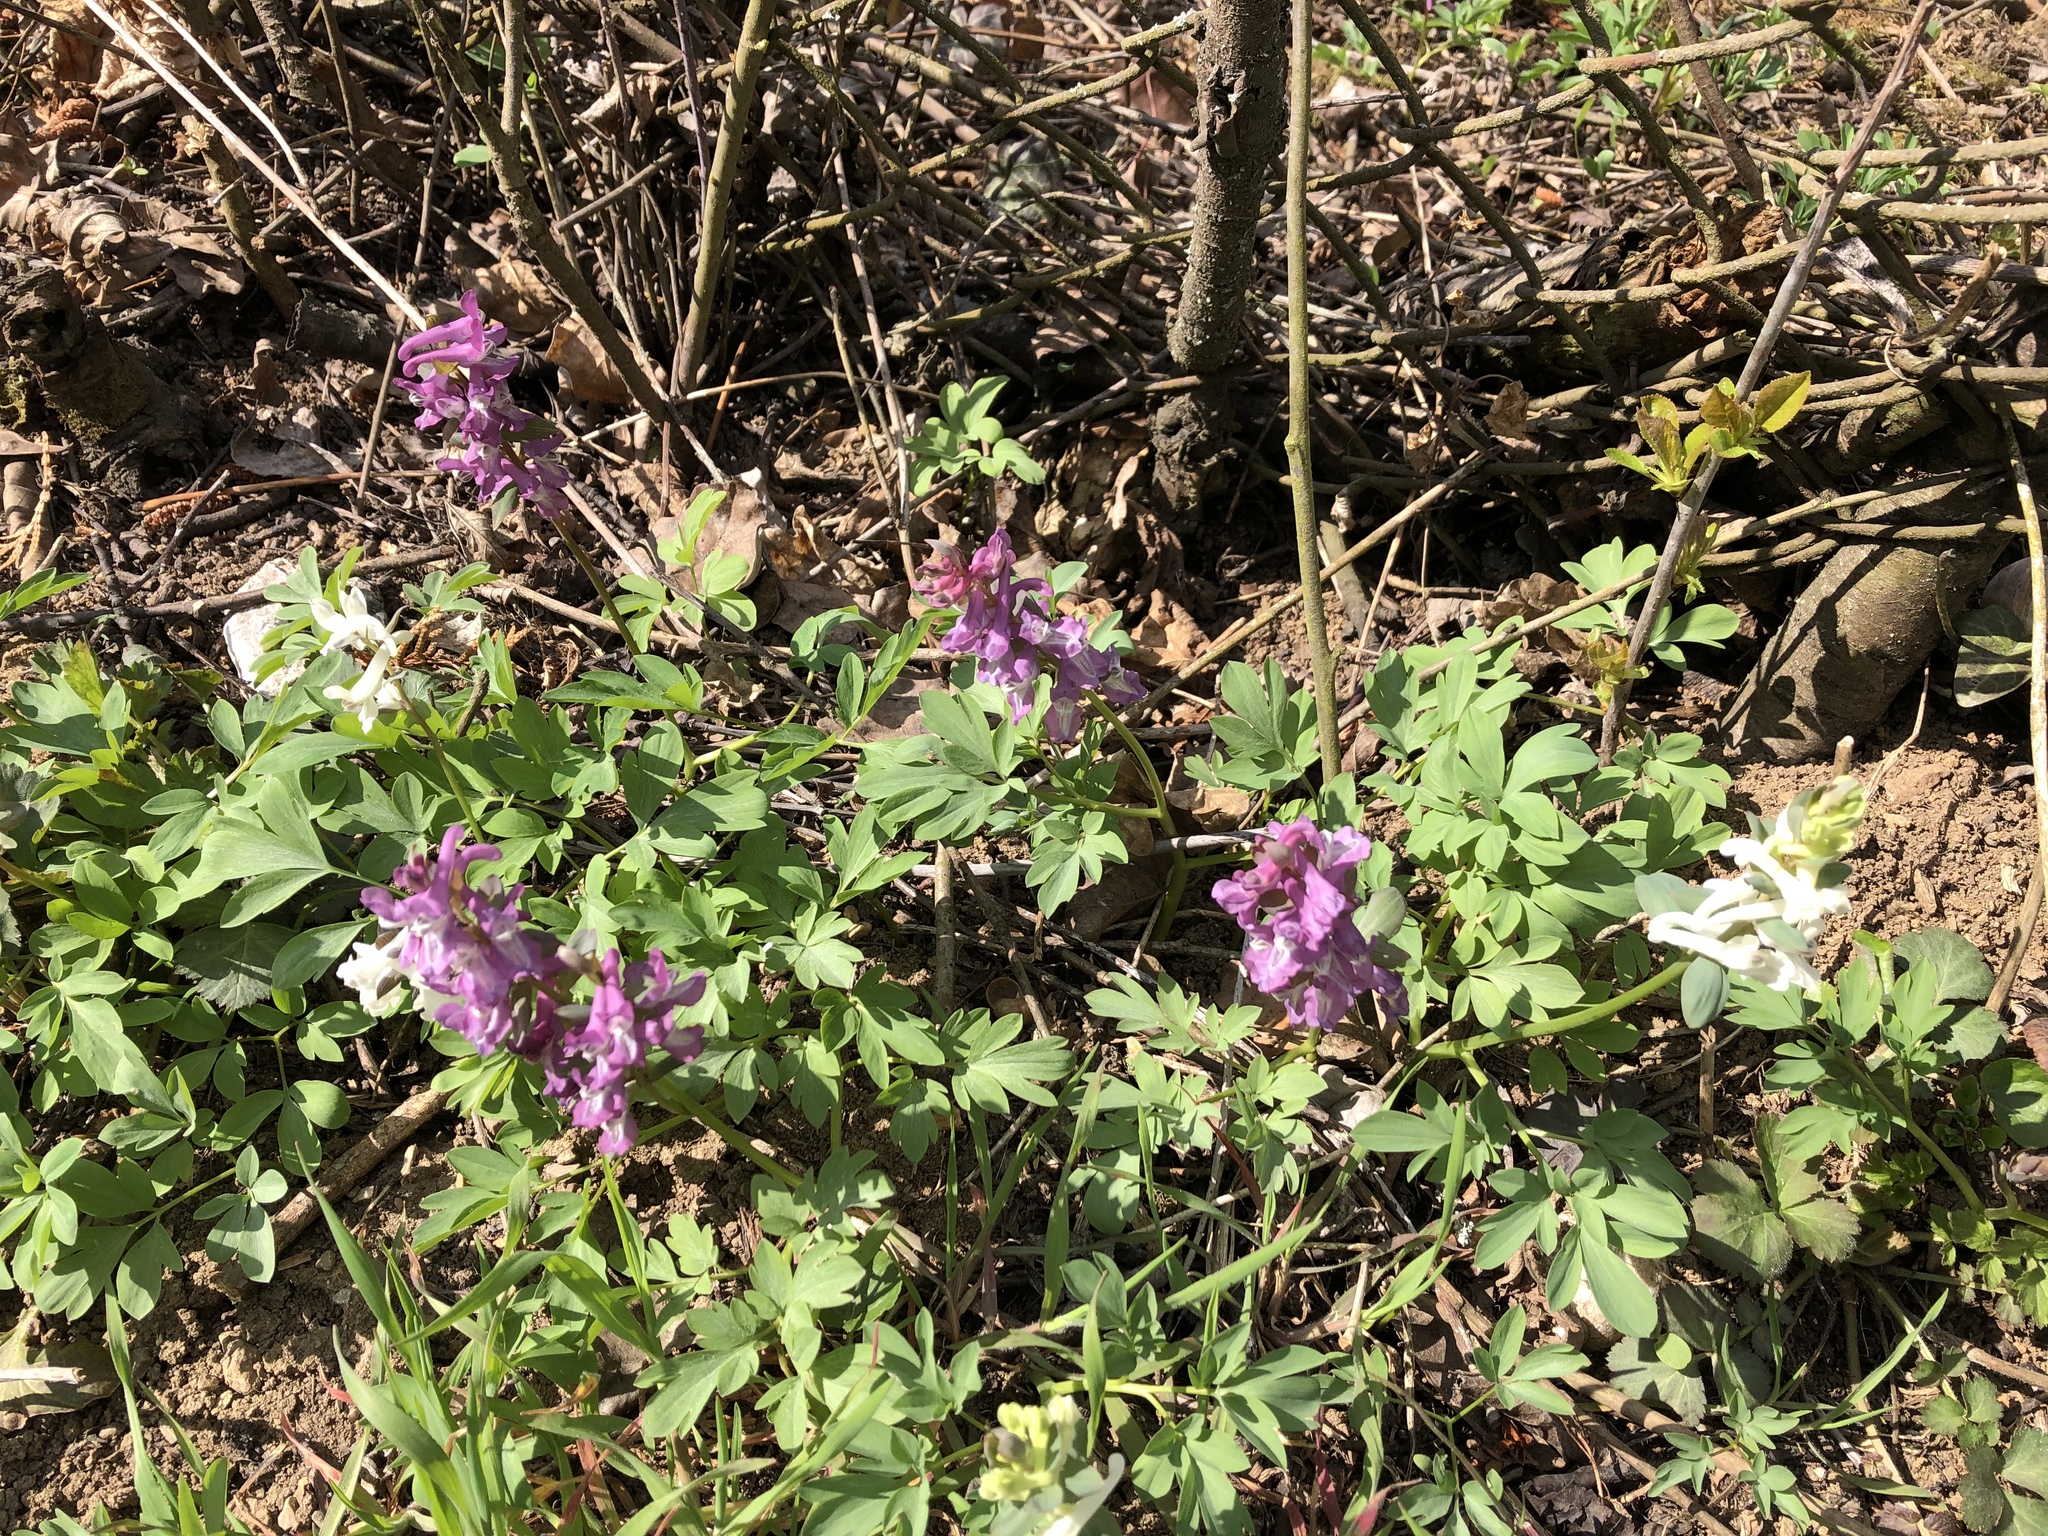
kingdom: Plantae
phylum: Tracheophyta
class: Magnoliopsida
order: Ranunculales
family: Papaveraceae
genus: Corydalis
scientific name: Corydalis cava
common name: Hollowroot
